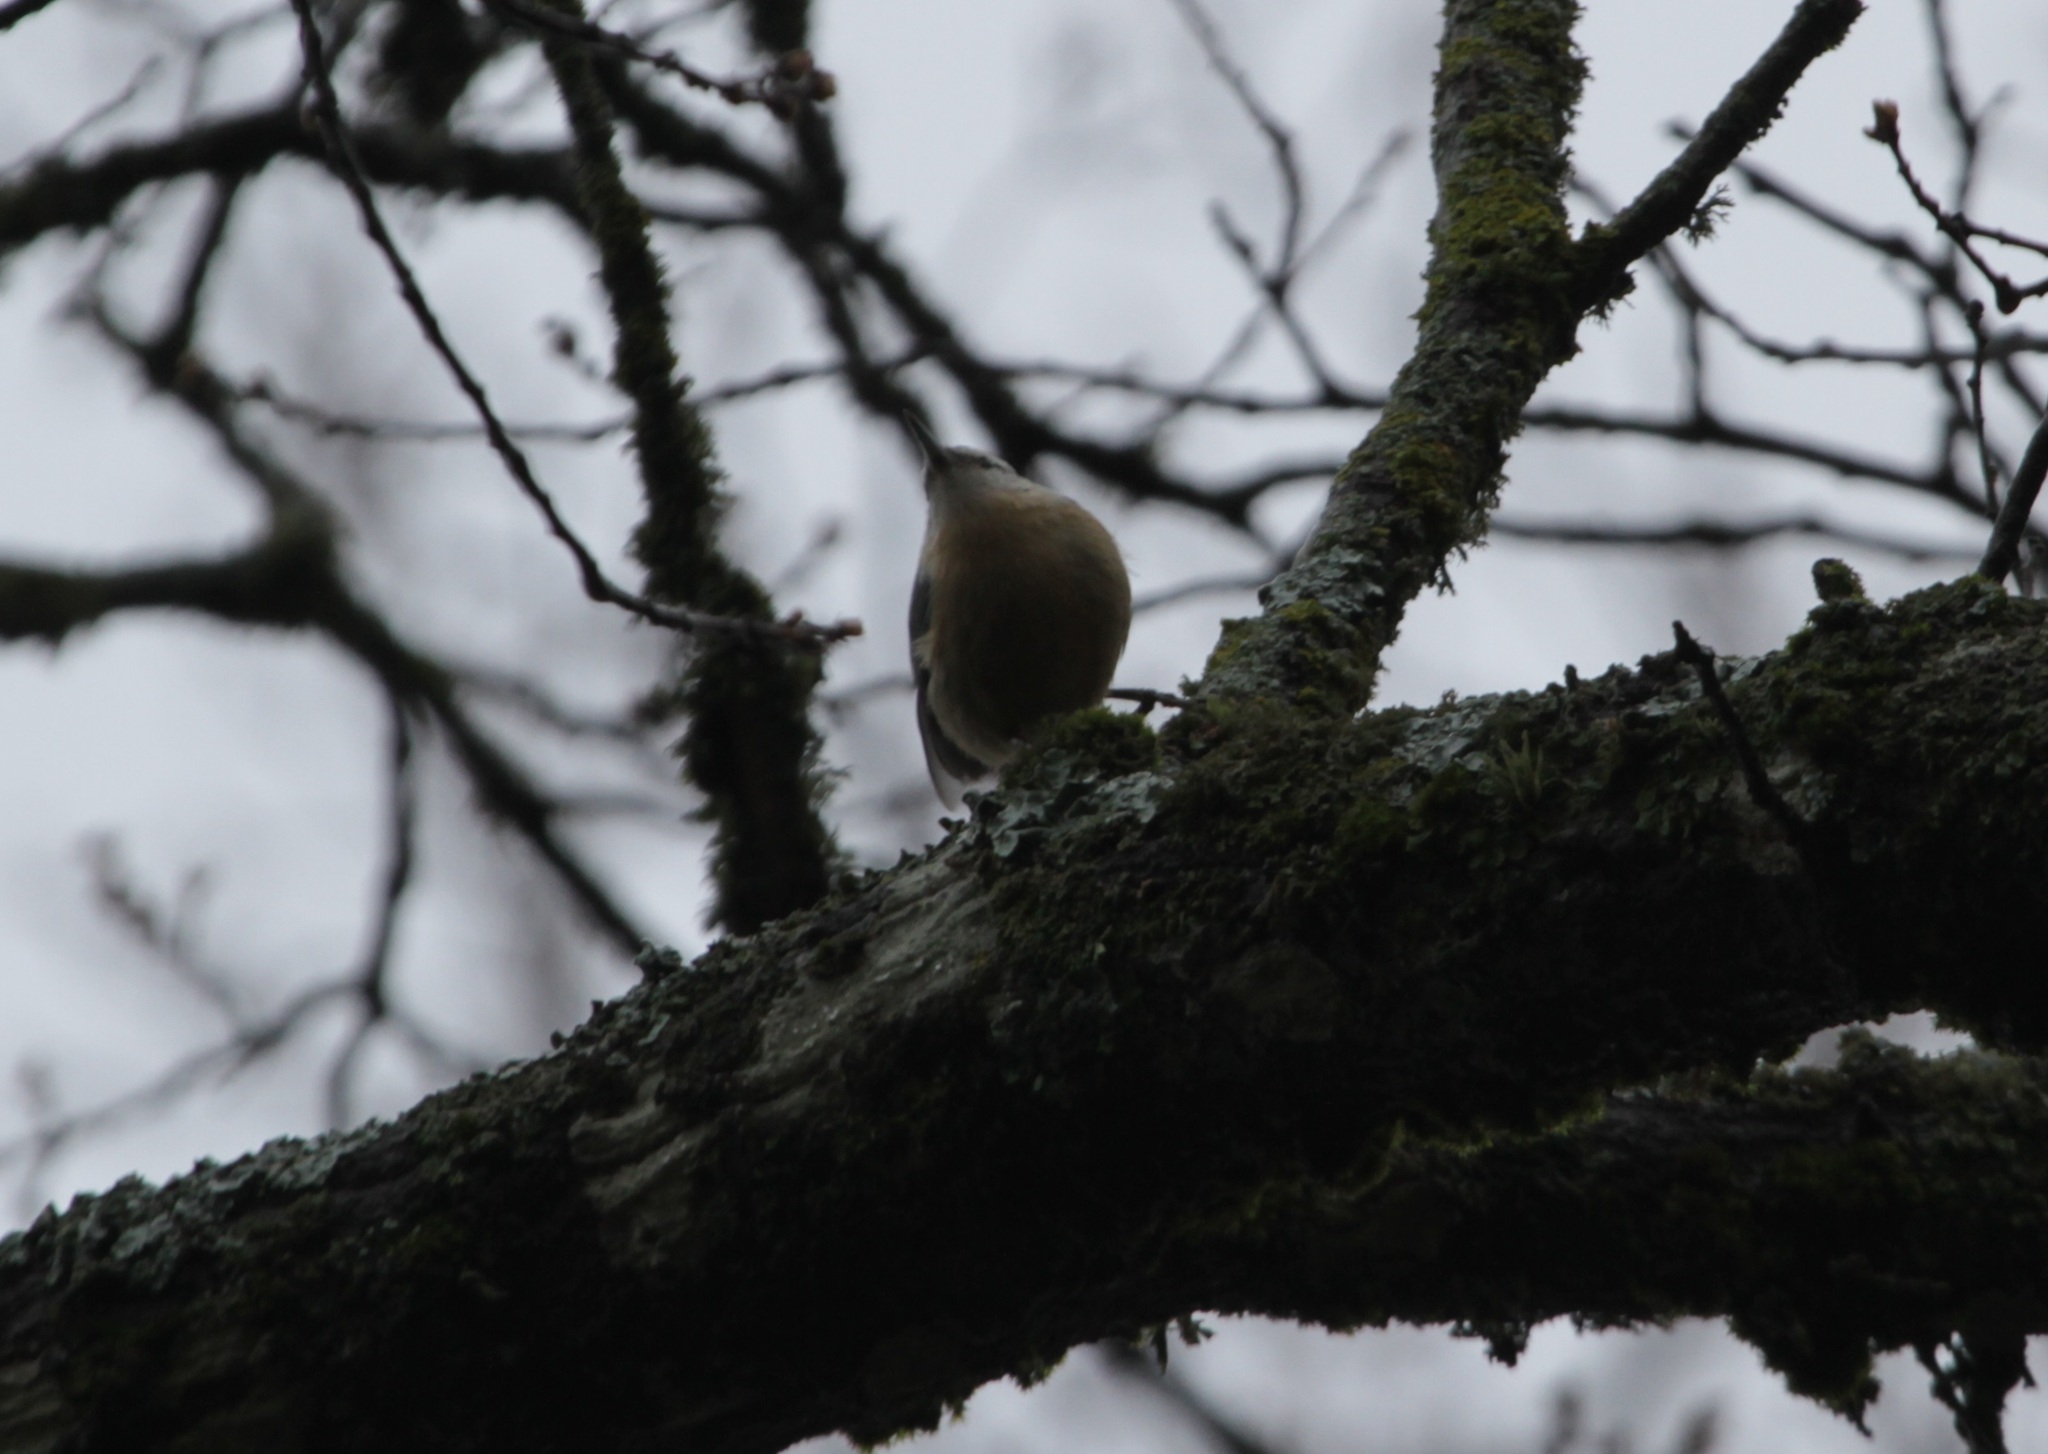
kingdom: Animalia
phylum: Chordata
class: Aves
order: Passeriformes
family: Sittidae
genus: Sitta
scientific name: Sitta ledanti
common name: Algerian nuthatch
